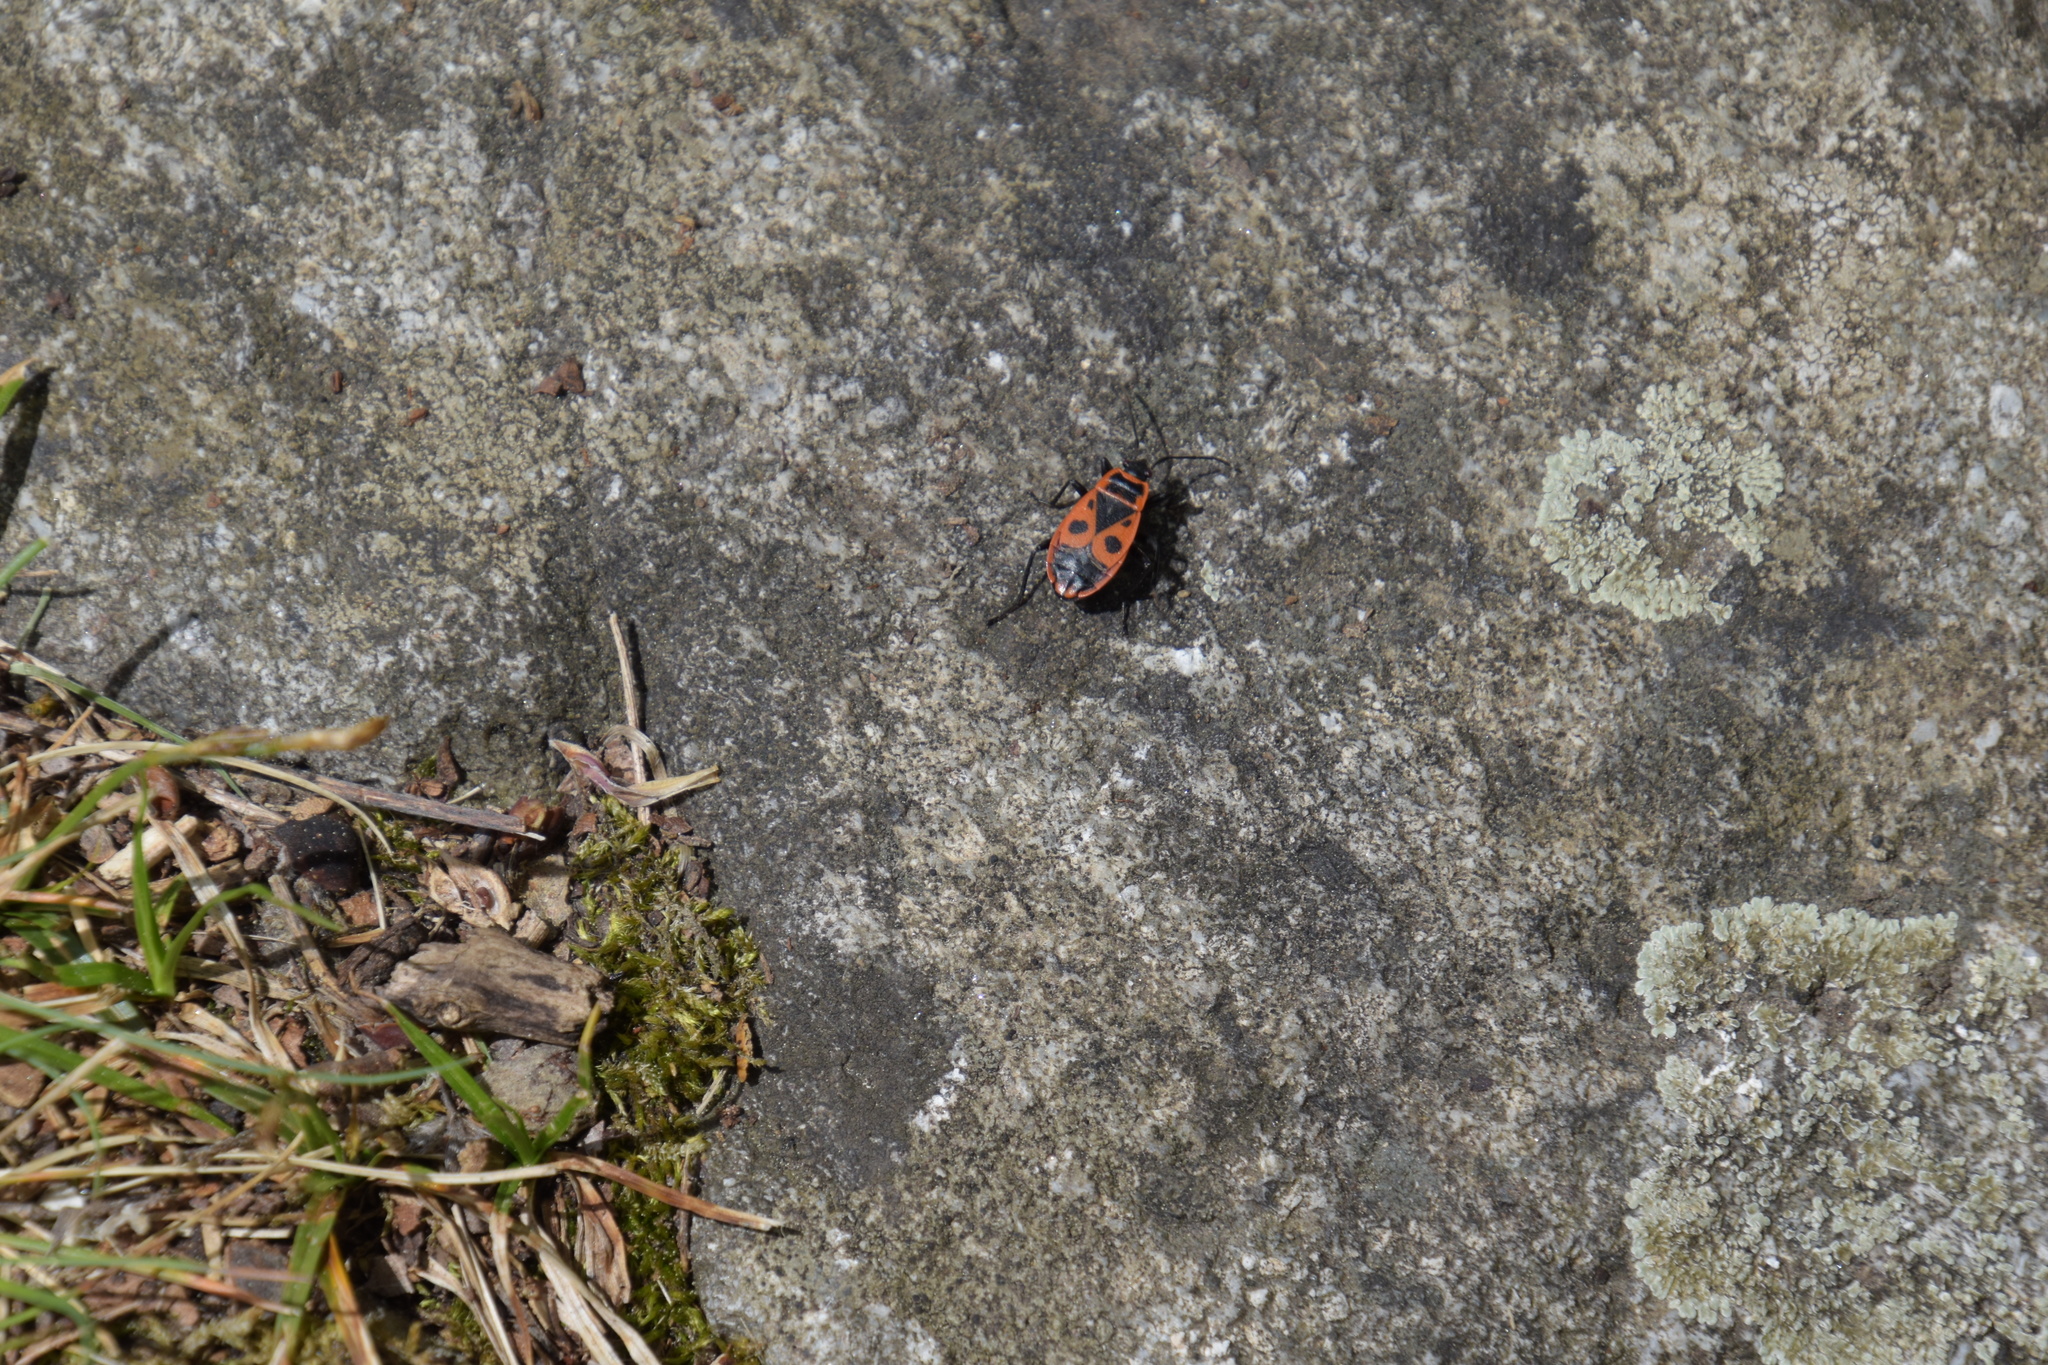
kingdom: Animalia
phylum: Arthropoda
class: Insecta
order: Hemiptera
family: Pyrrhocoridae
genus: Pyrrhocoris
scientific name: Pyrrhocoris apterus
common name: Firebug
